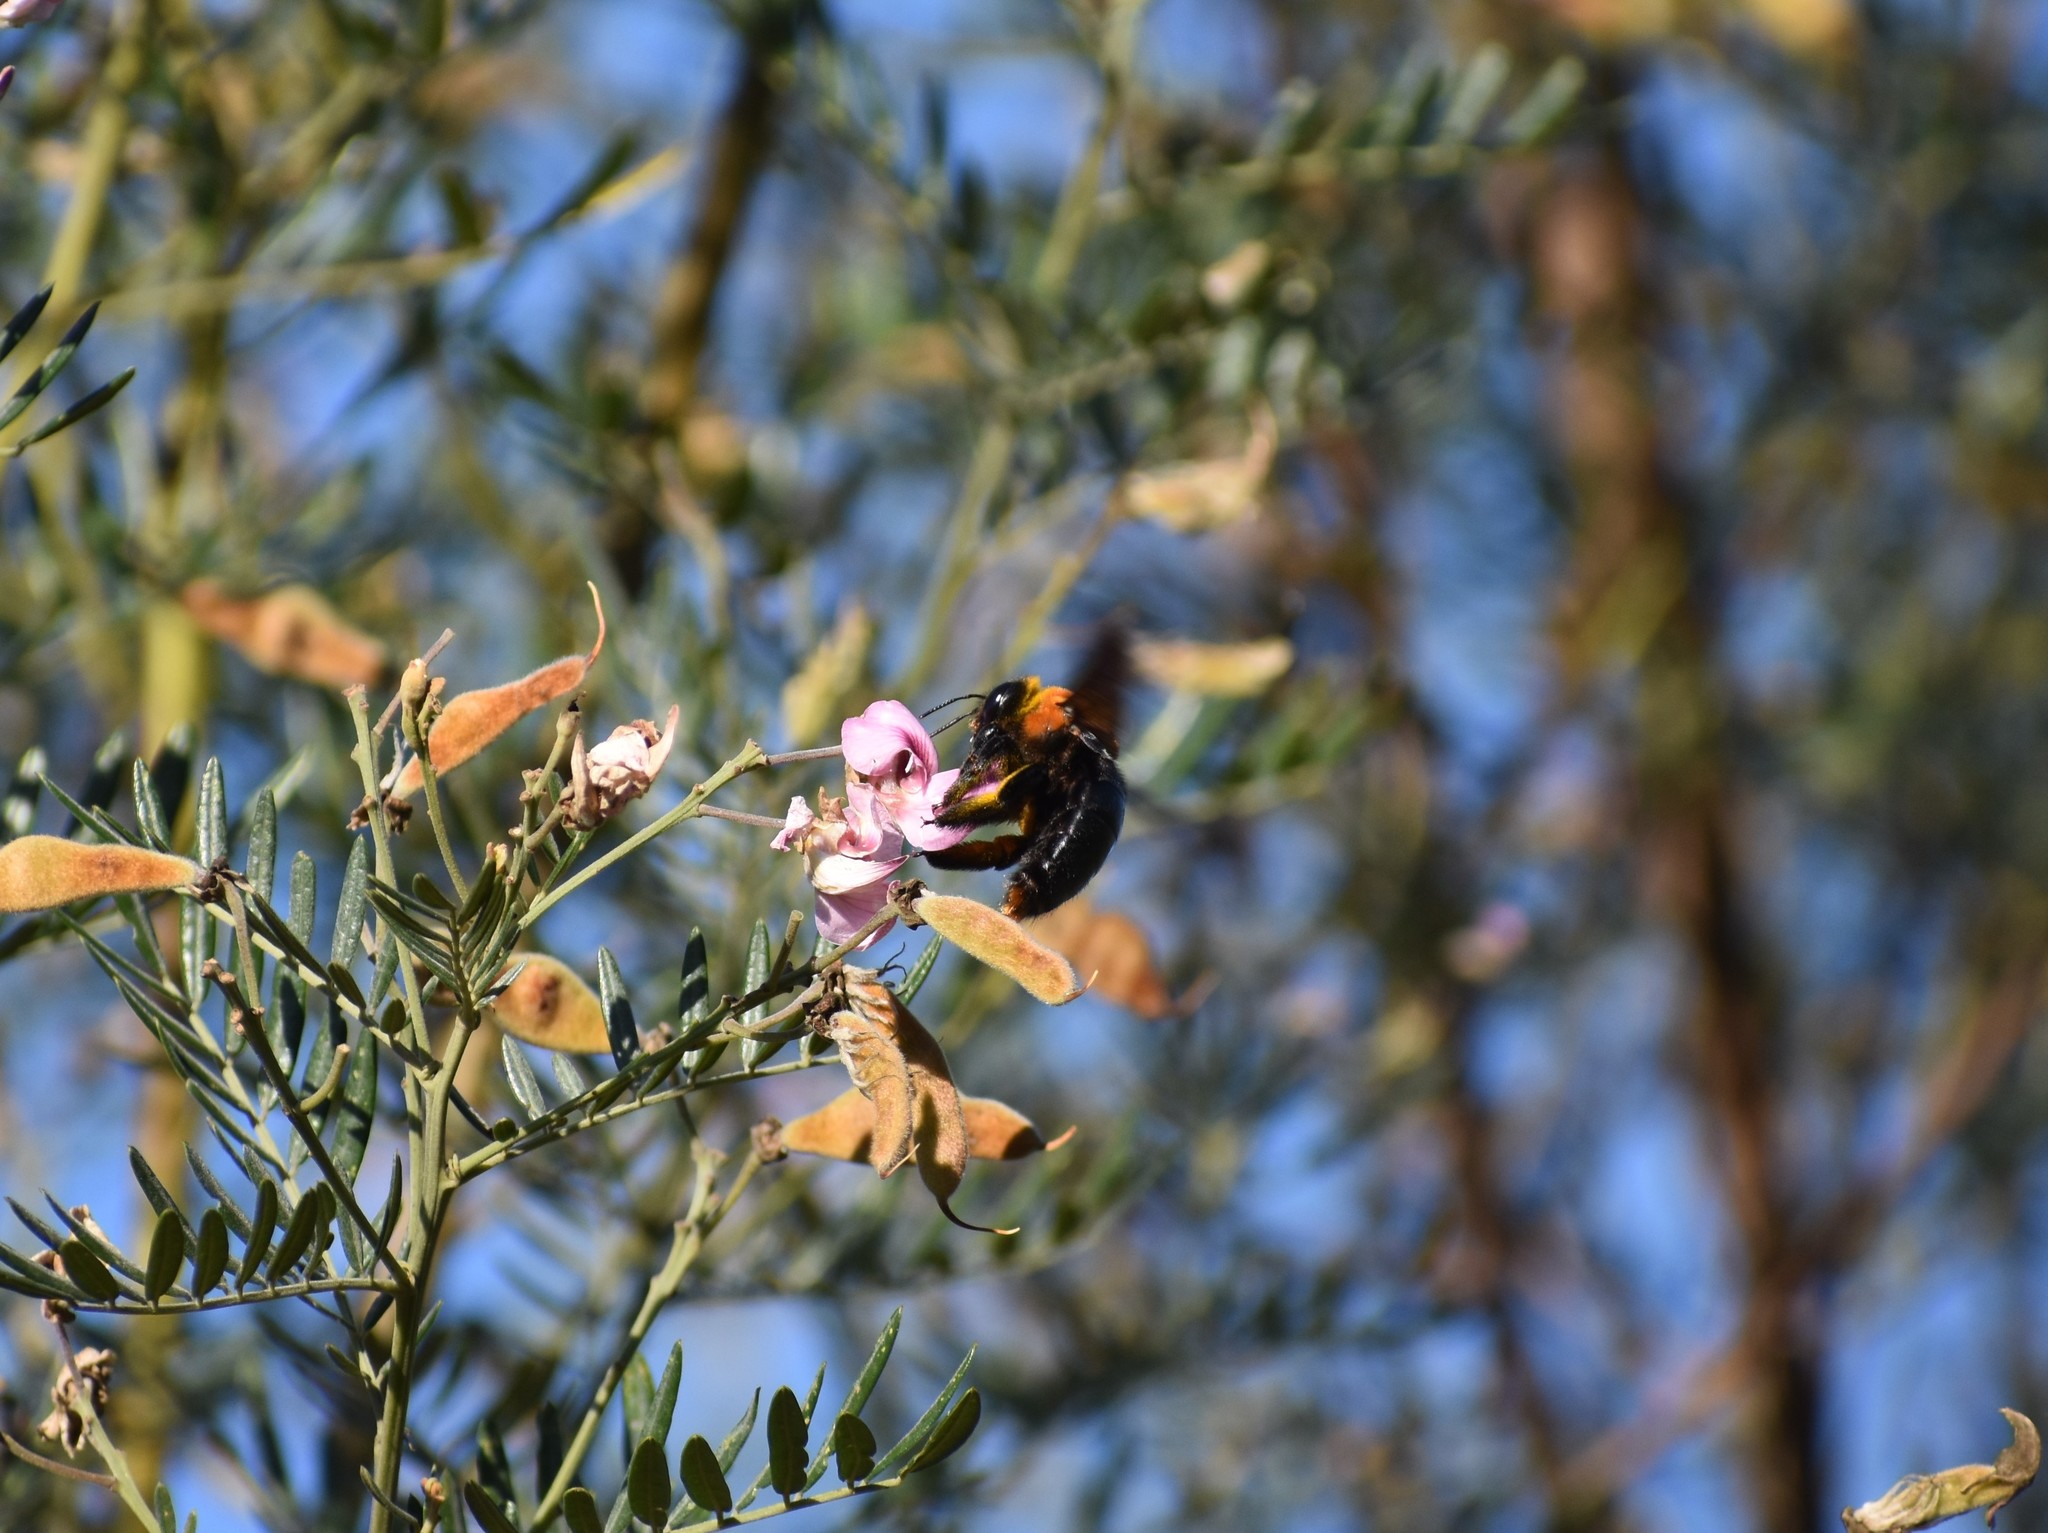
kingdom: Animalia
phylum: Arthropoda
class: Insecta
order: Hymenoptera
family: Apidae
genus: Xylocopa
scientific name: Xylocopa flavorufa
